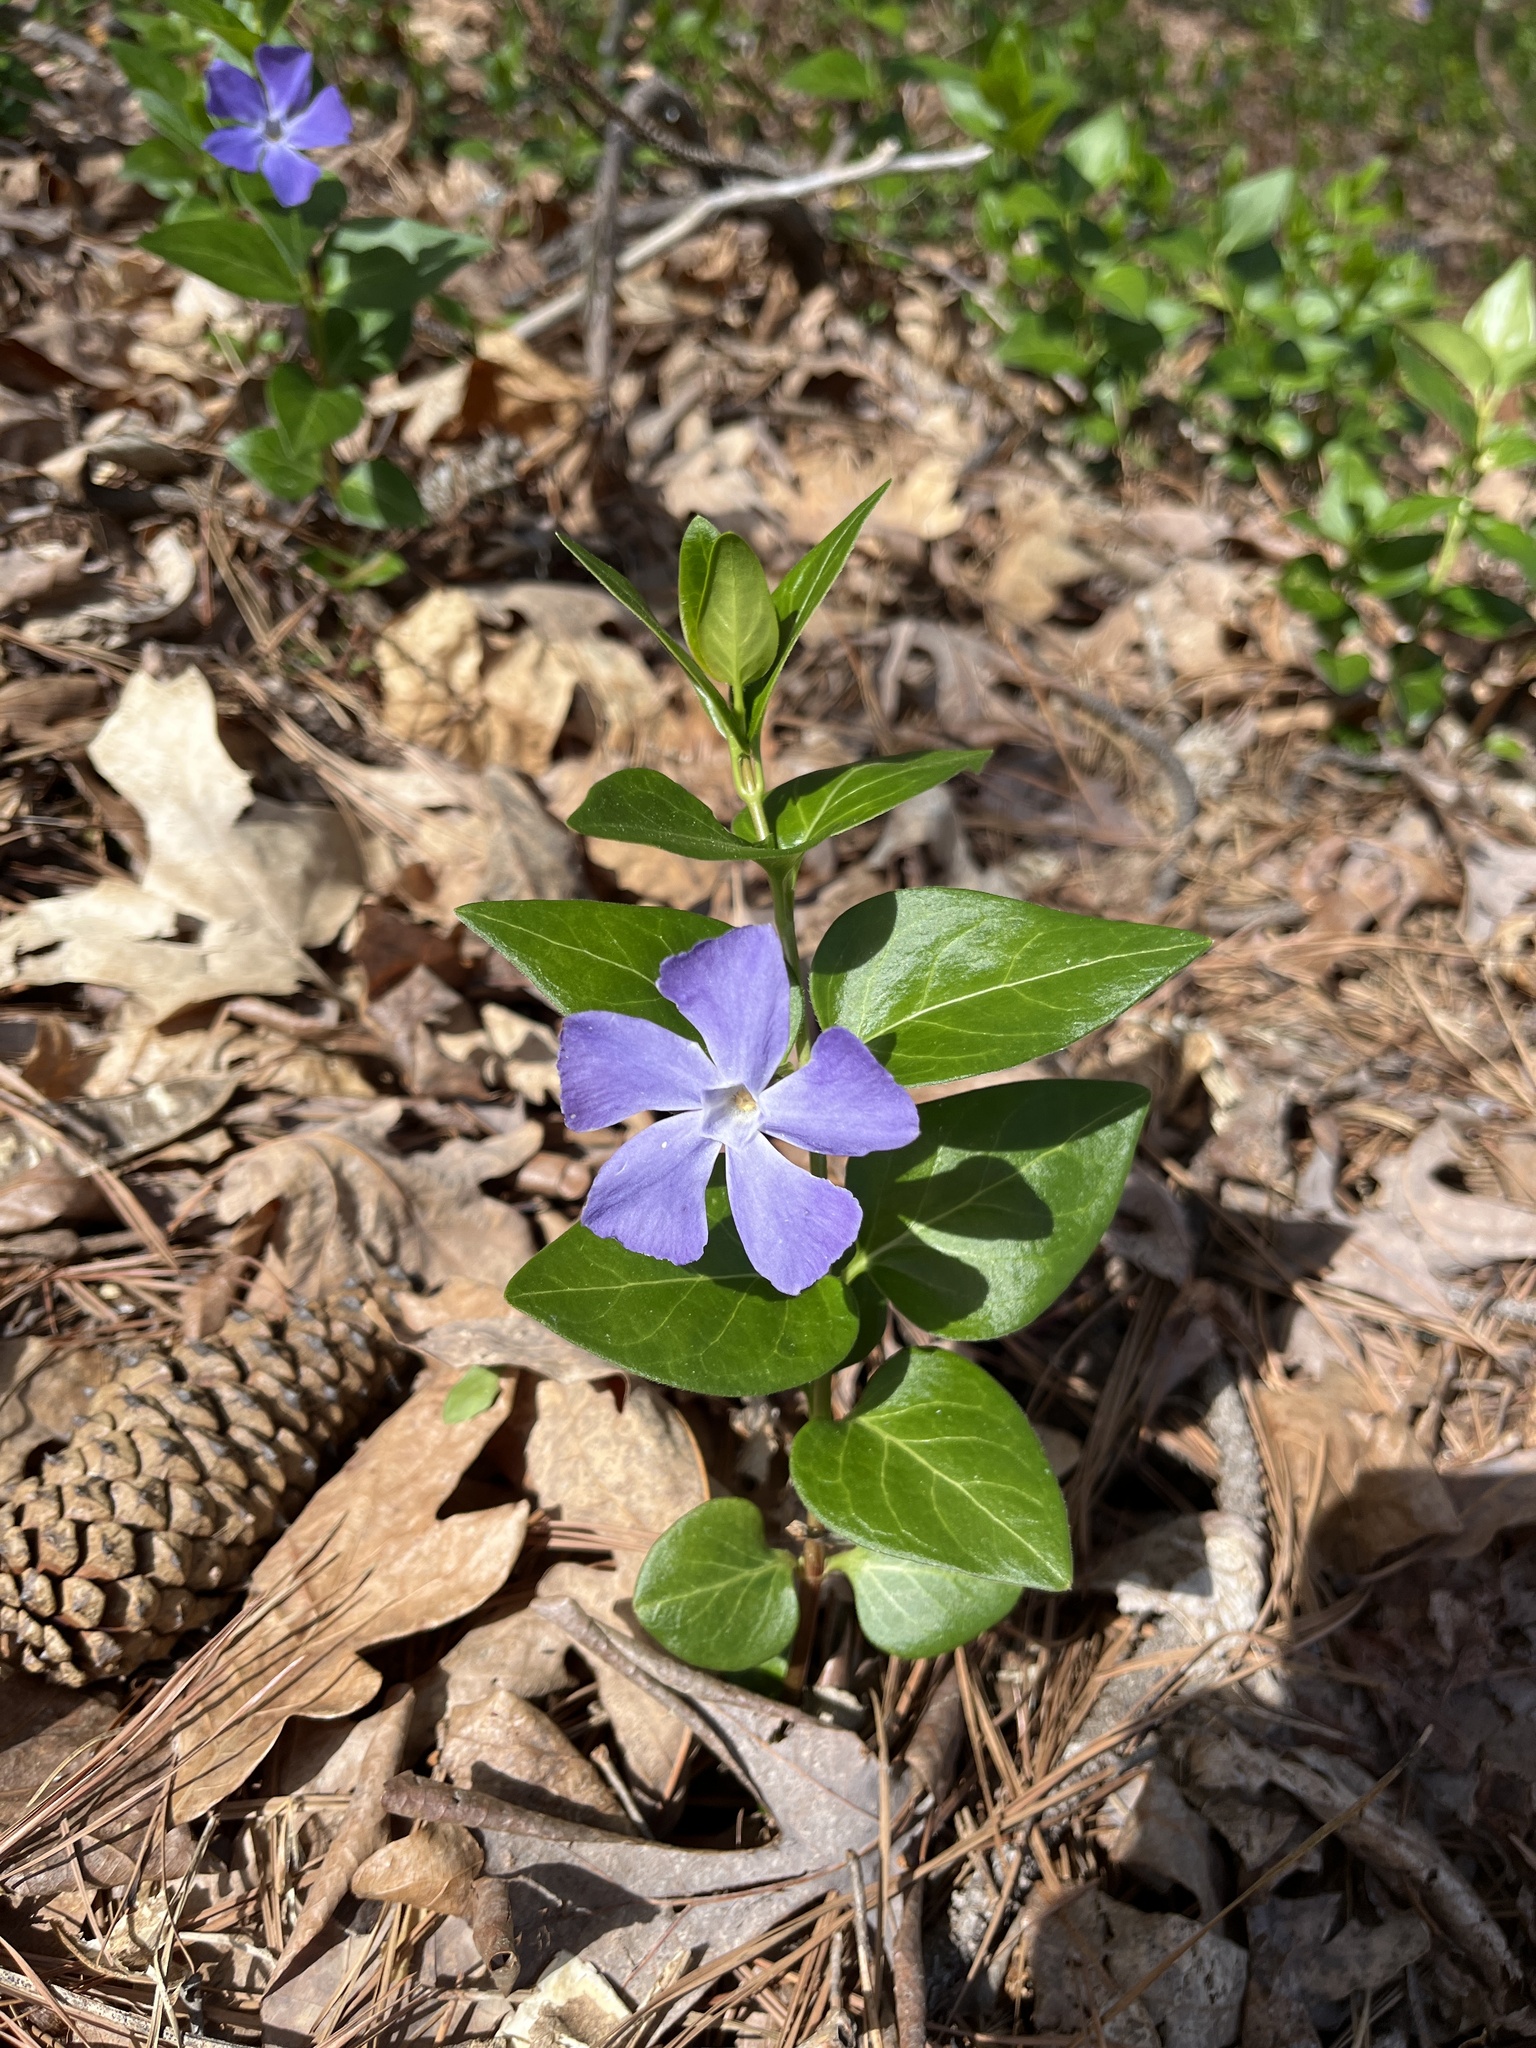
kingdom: Plantae
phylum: Tracheophyta
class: Magnoliopsida
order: Gentianales
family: Apocynaceae
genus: Vinca
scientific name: Vinca major
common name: Greater periwinkle
